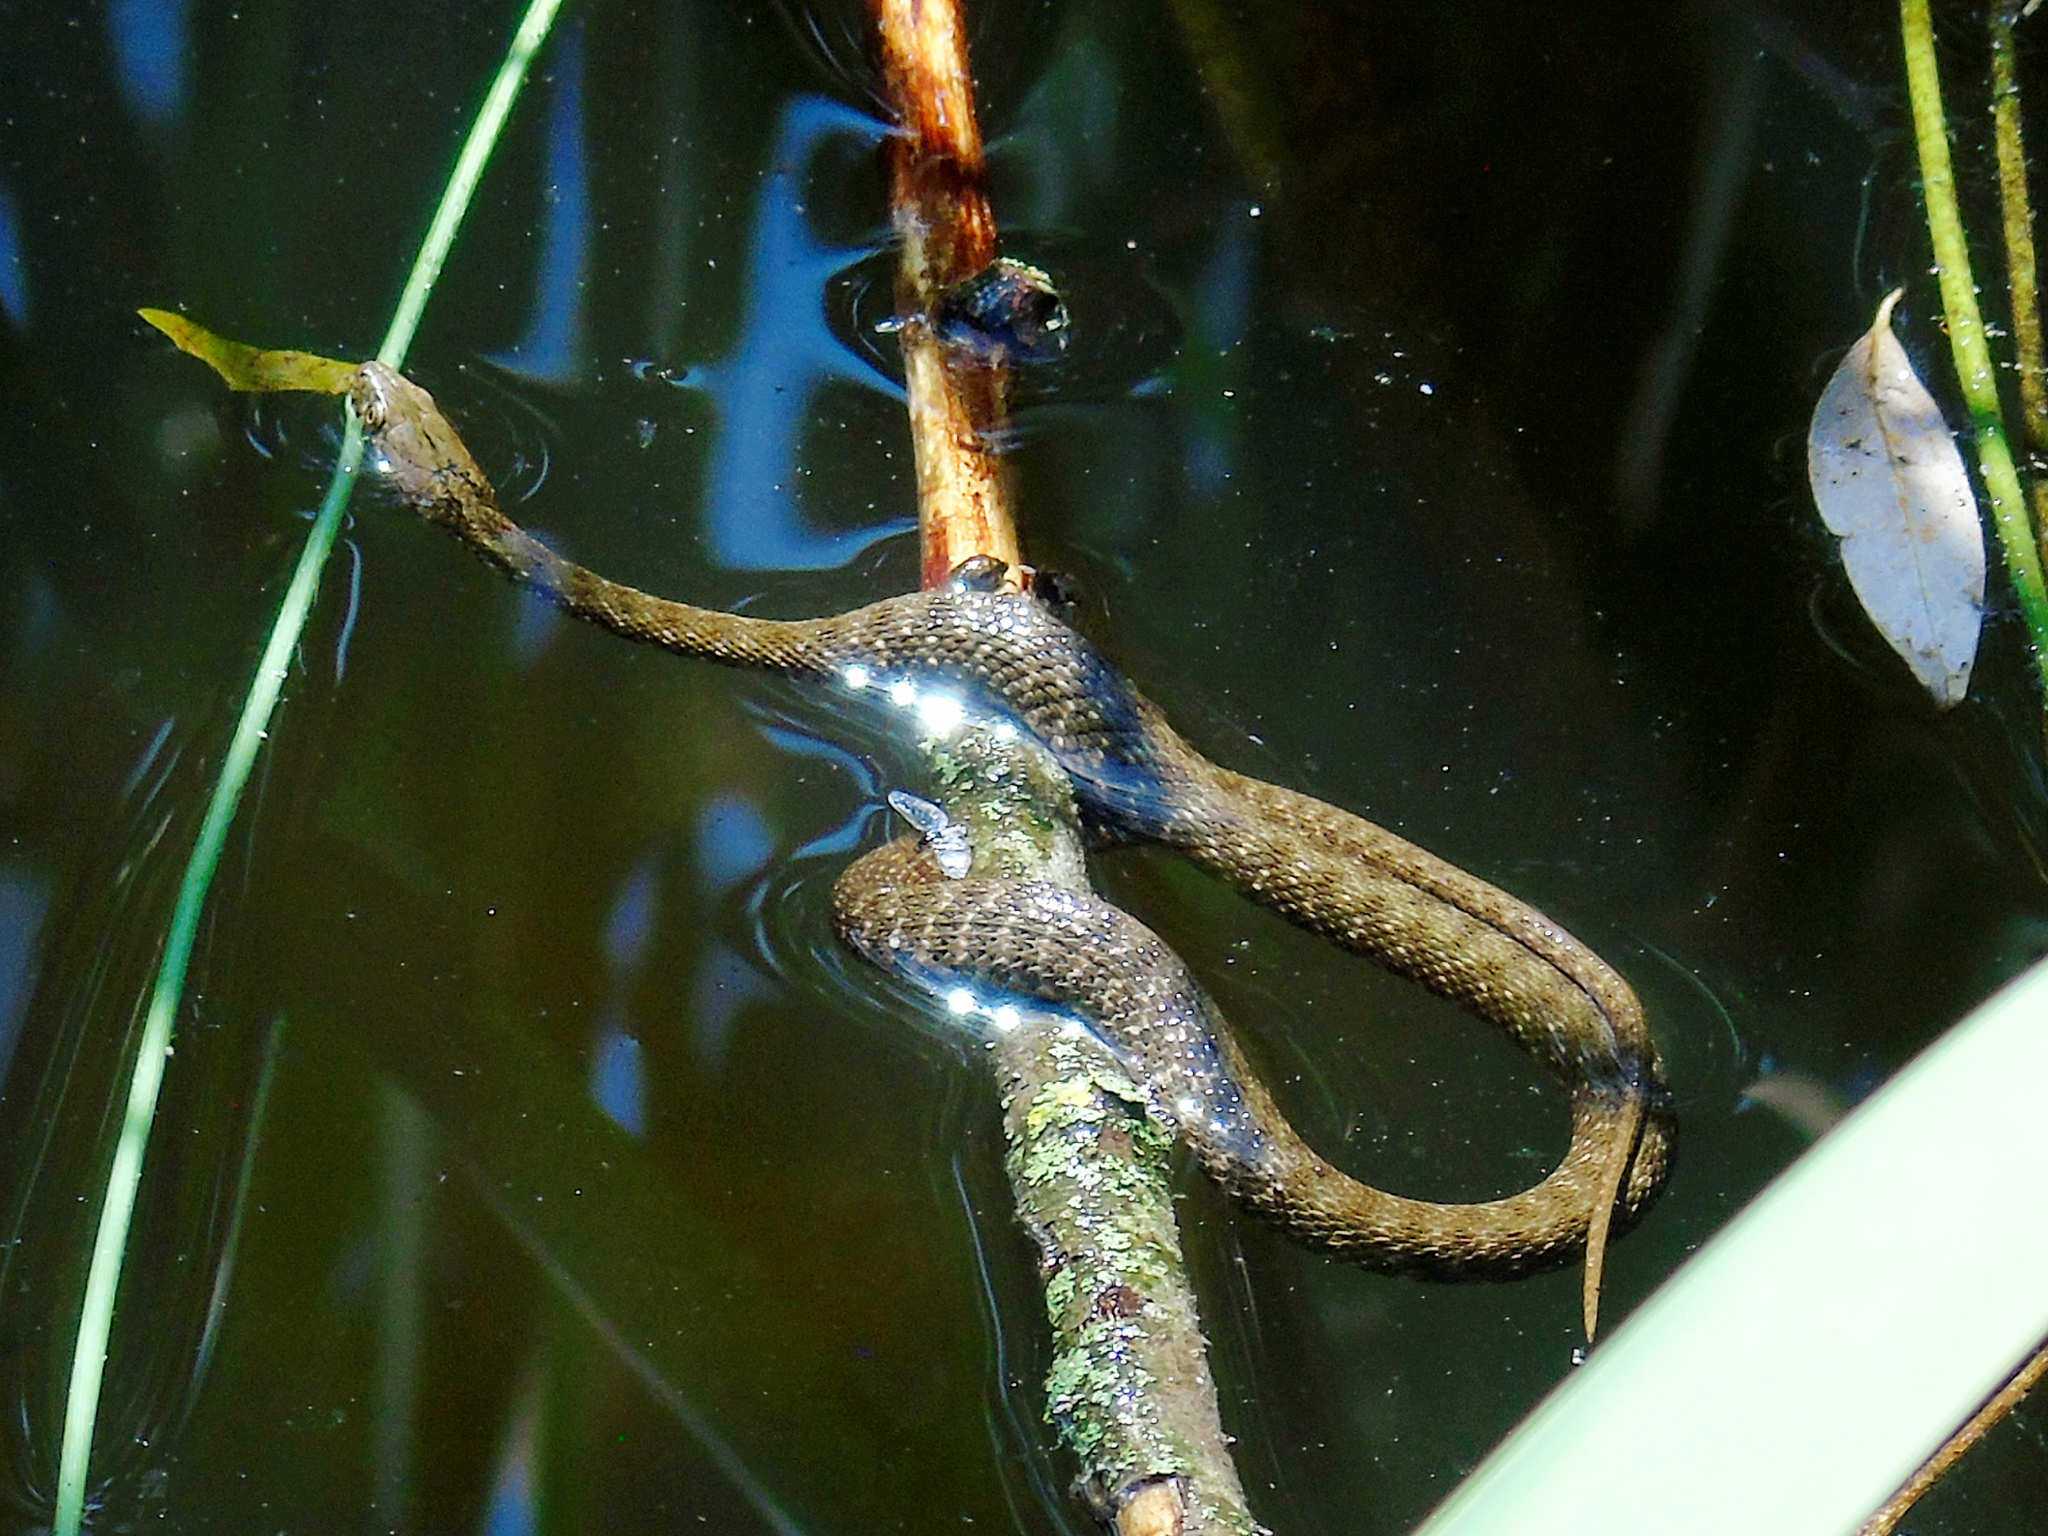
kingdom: Animalia
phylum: Chordata
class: Squamata
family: Colubridae
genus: Natrix
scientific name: Natrix tessellata
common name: Dice snake
